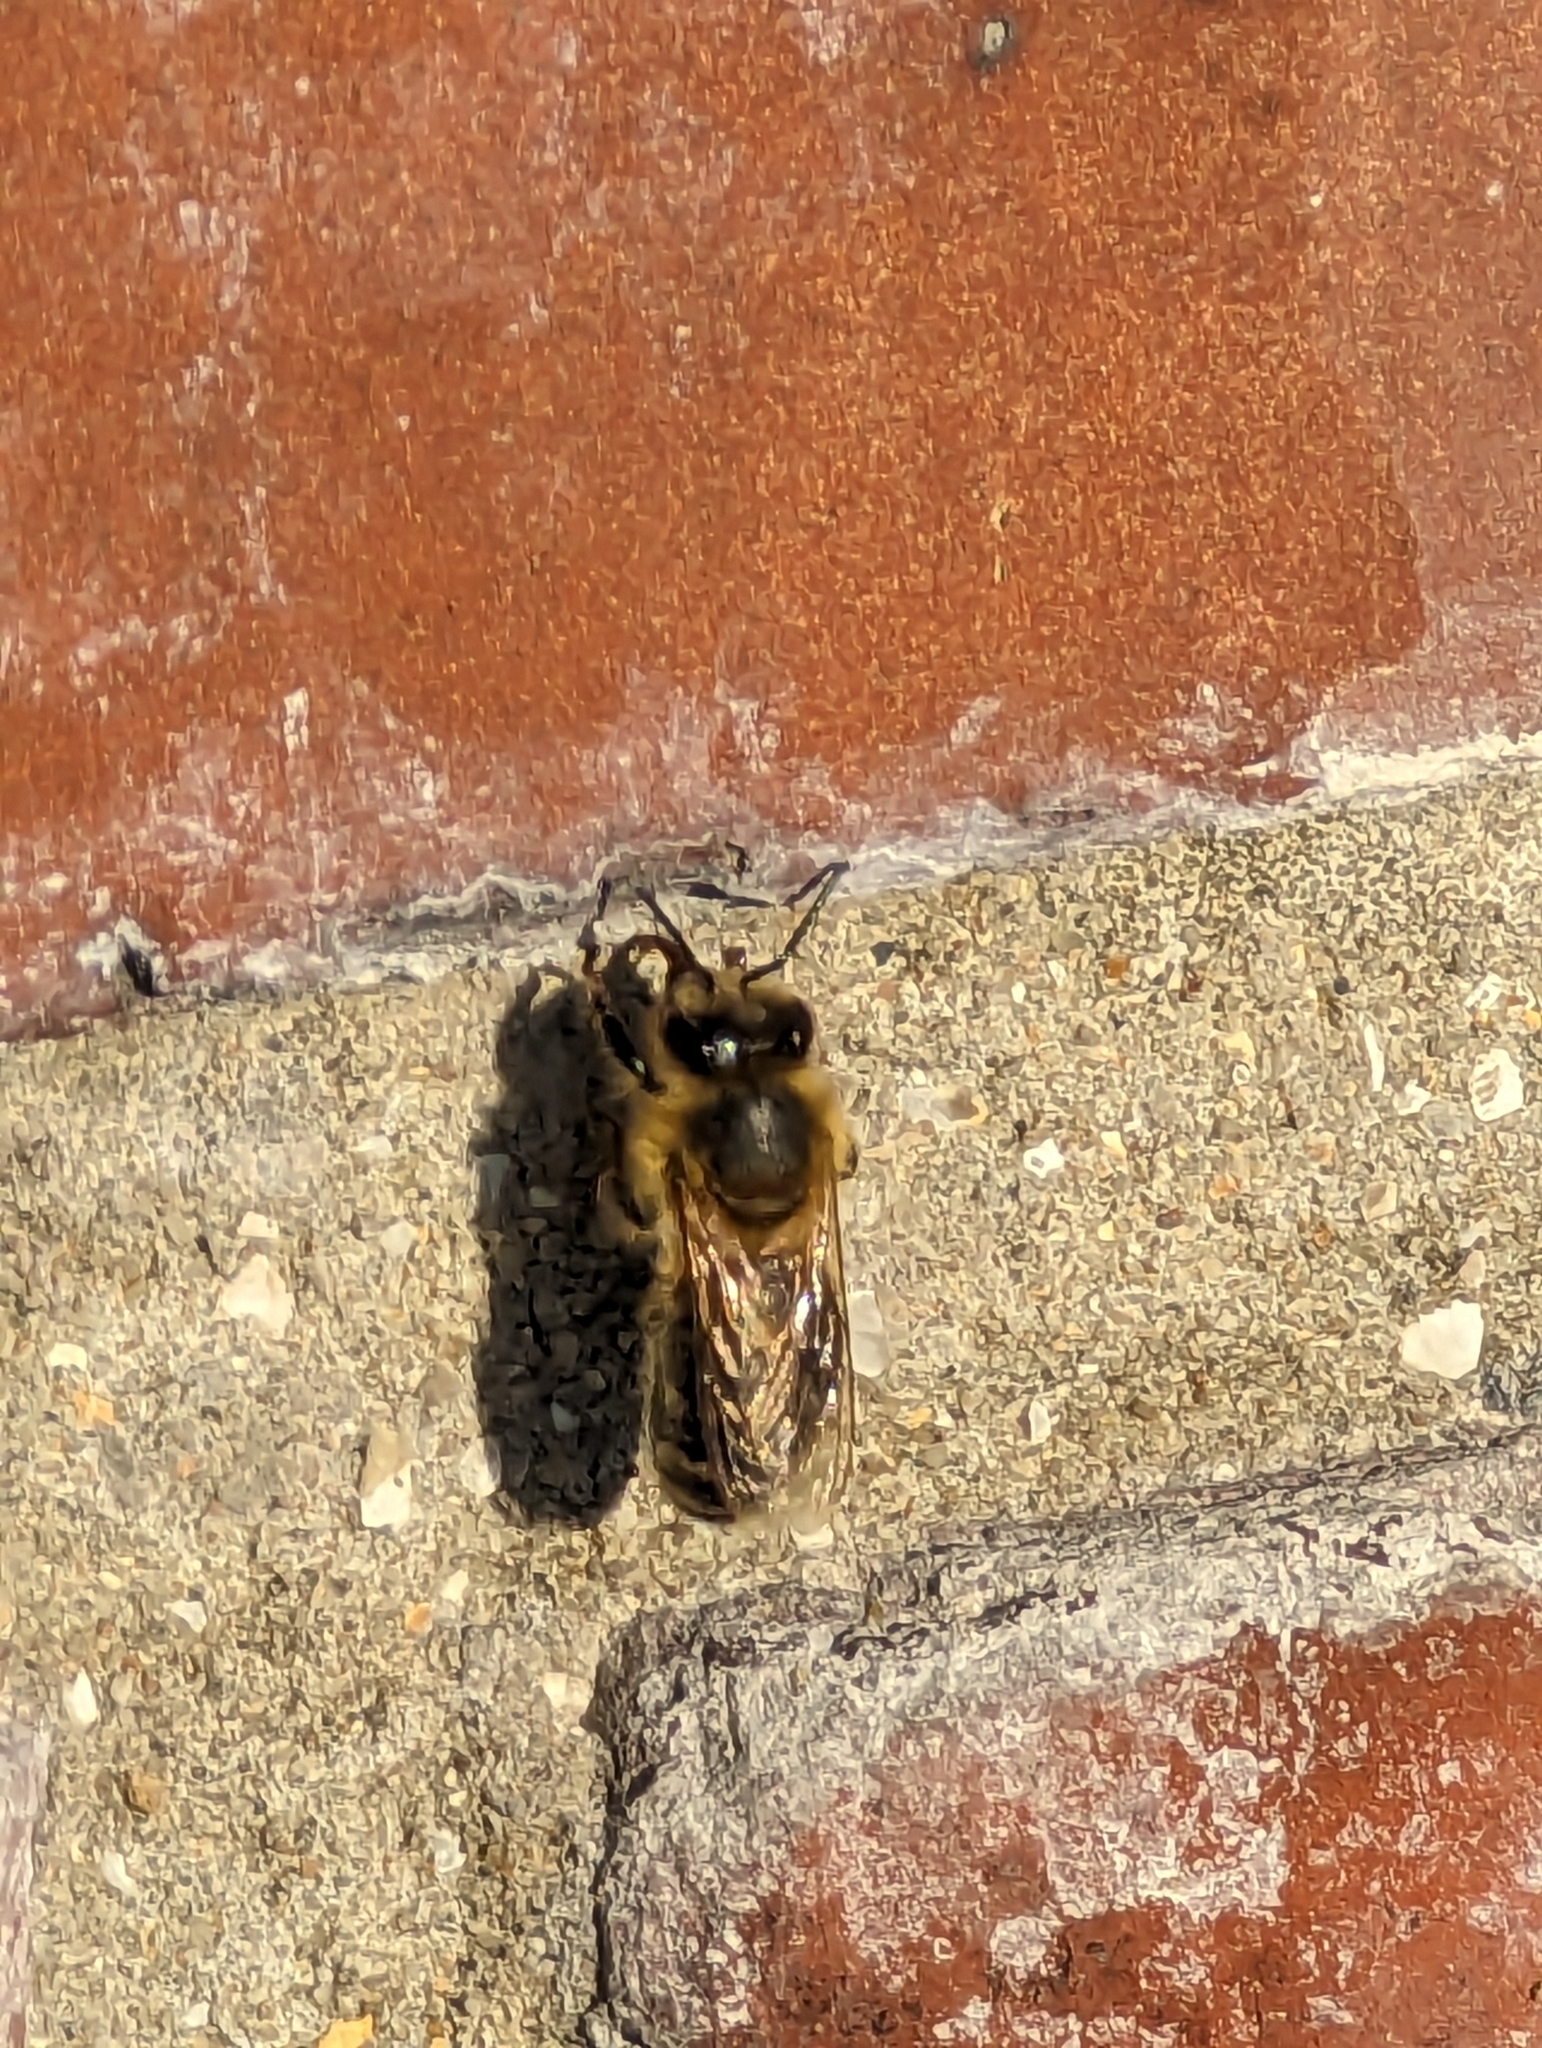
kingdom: Animalia
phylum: Arthropoda
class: Insecta
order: Hymenoptera
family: Apidae
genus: Apis
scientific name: Apis mellifera
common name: Honey bee
